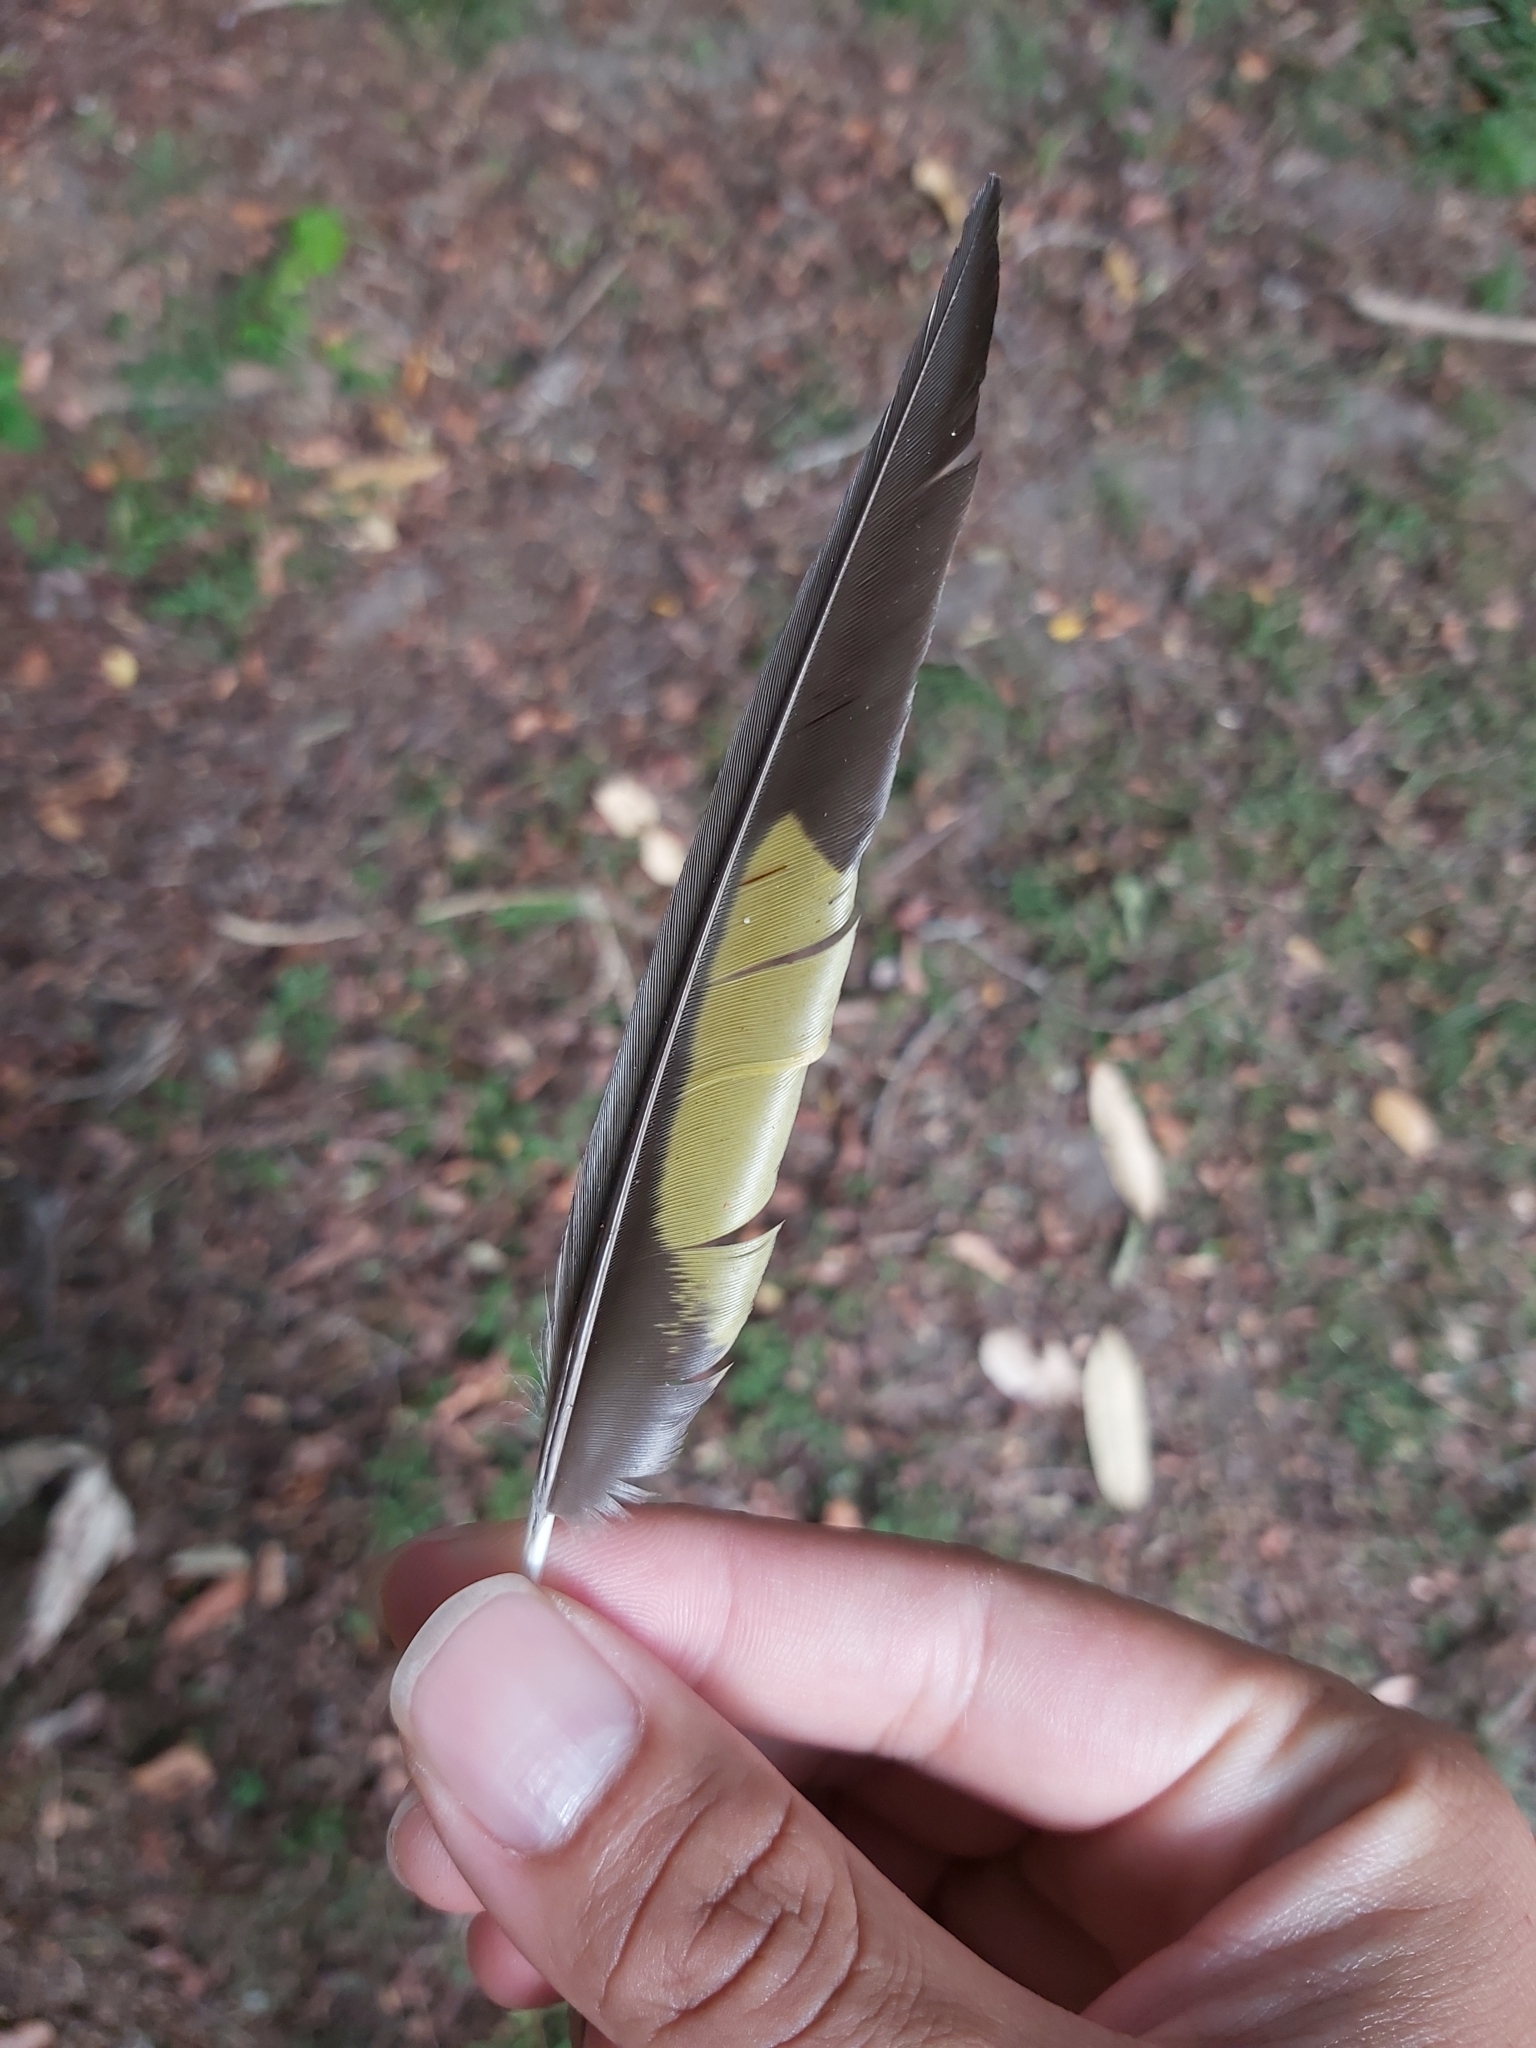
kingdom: Animalia
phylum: Chordata
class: Aves
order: Psittaciformes
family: Psittacidae
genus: Trichoglossus
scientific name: Trichoglossus haematodus
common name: Coconut lorikeet
